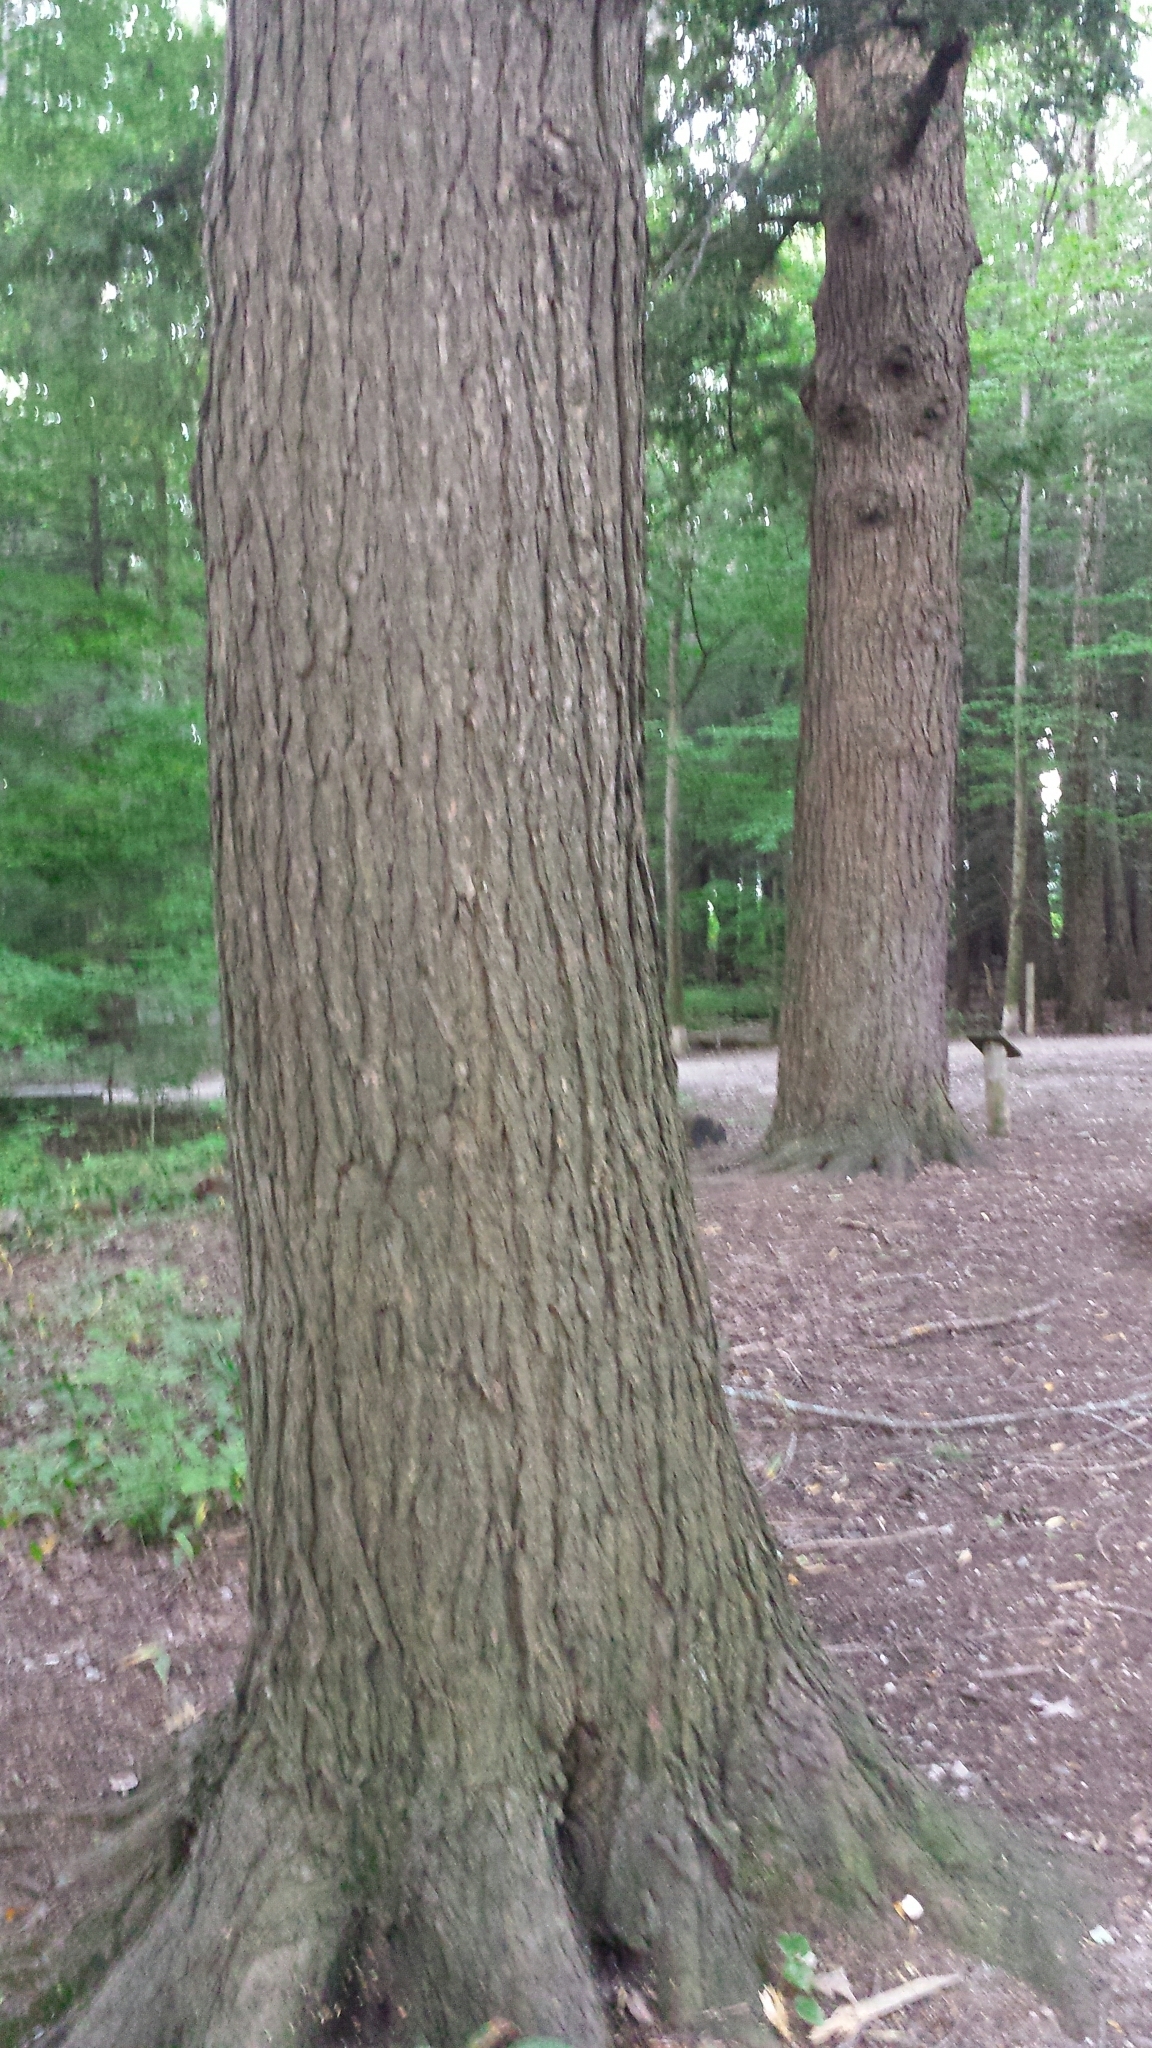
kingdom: Plantae
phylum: Tracheophyta
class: Pinopsida
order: Pinales
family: Pinaceae
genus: Tsuga
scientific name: Tsuga canadensis
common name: Eastern hemlock
